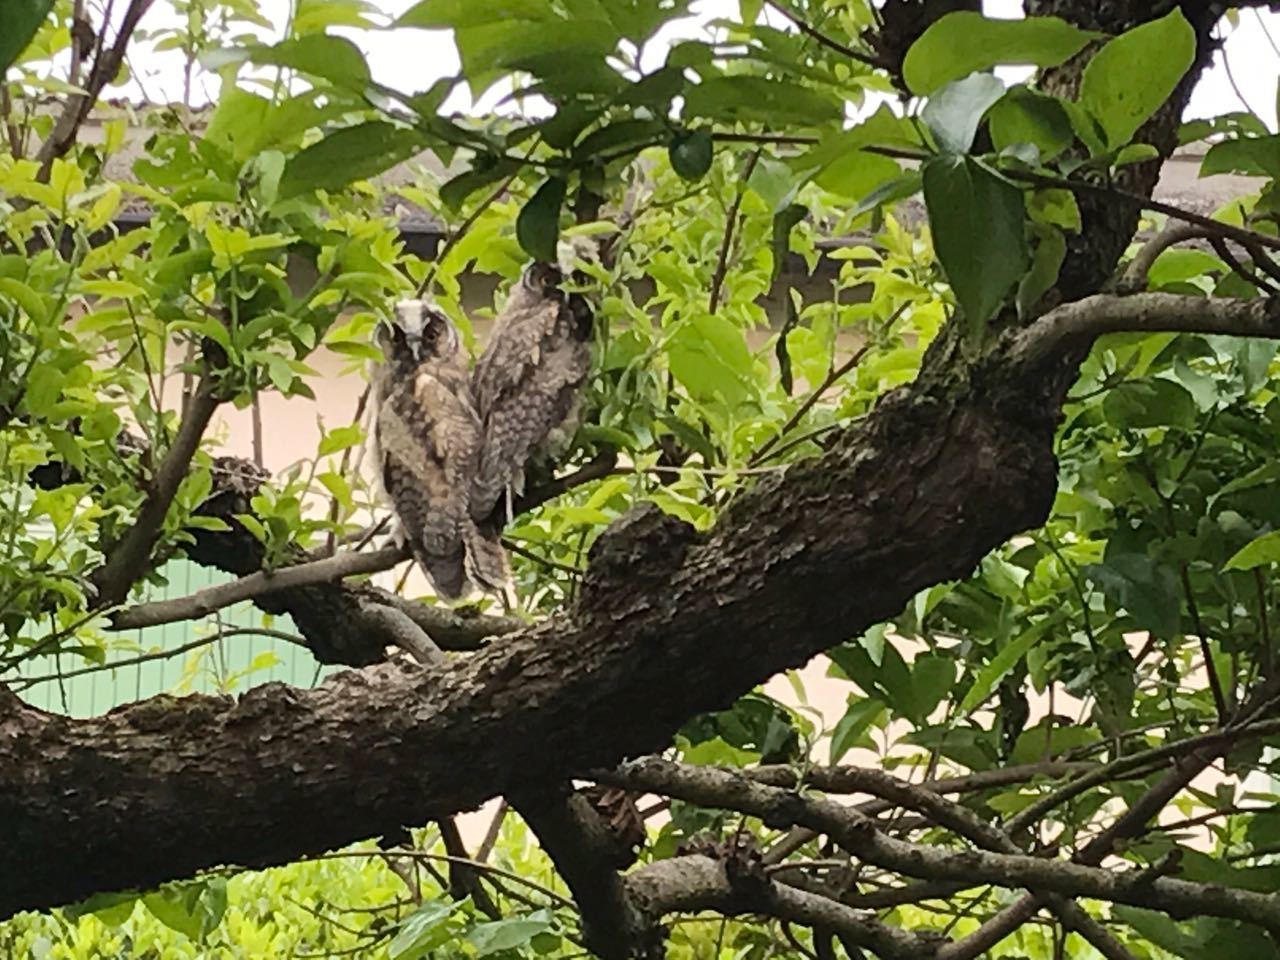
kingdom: Animalia
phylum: Chordata
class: Aves
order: Strigiformes
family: Strigidae
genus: Asio
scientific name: Asio otus
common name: Long-eared owl
